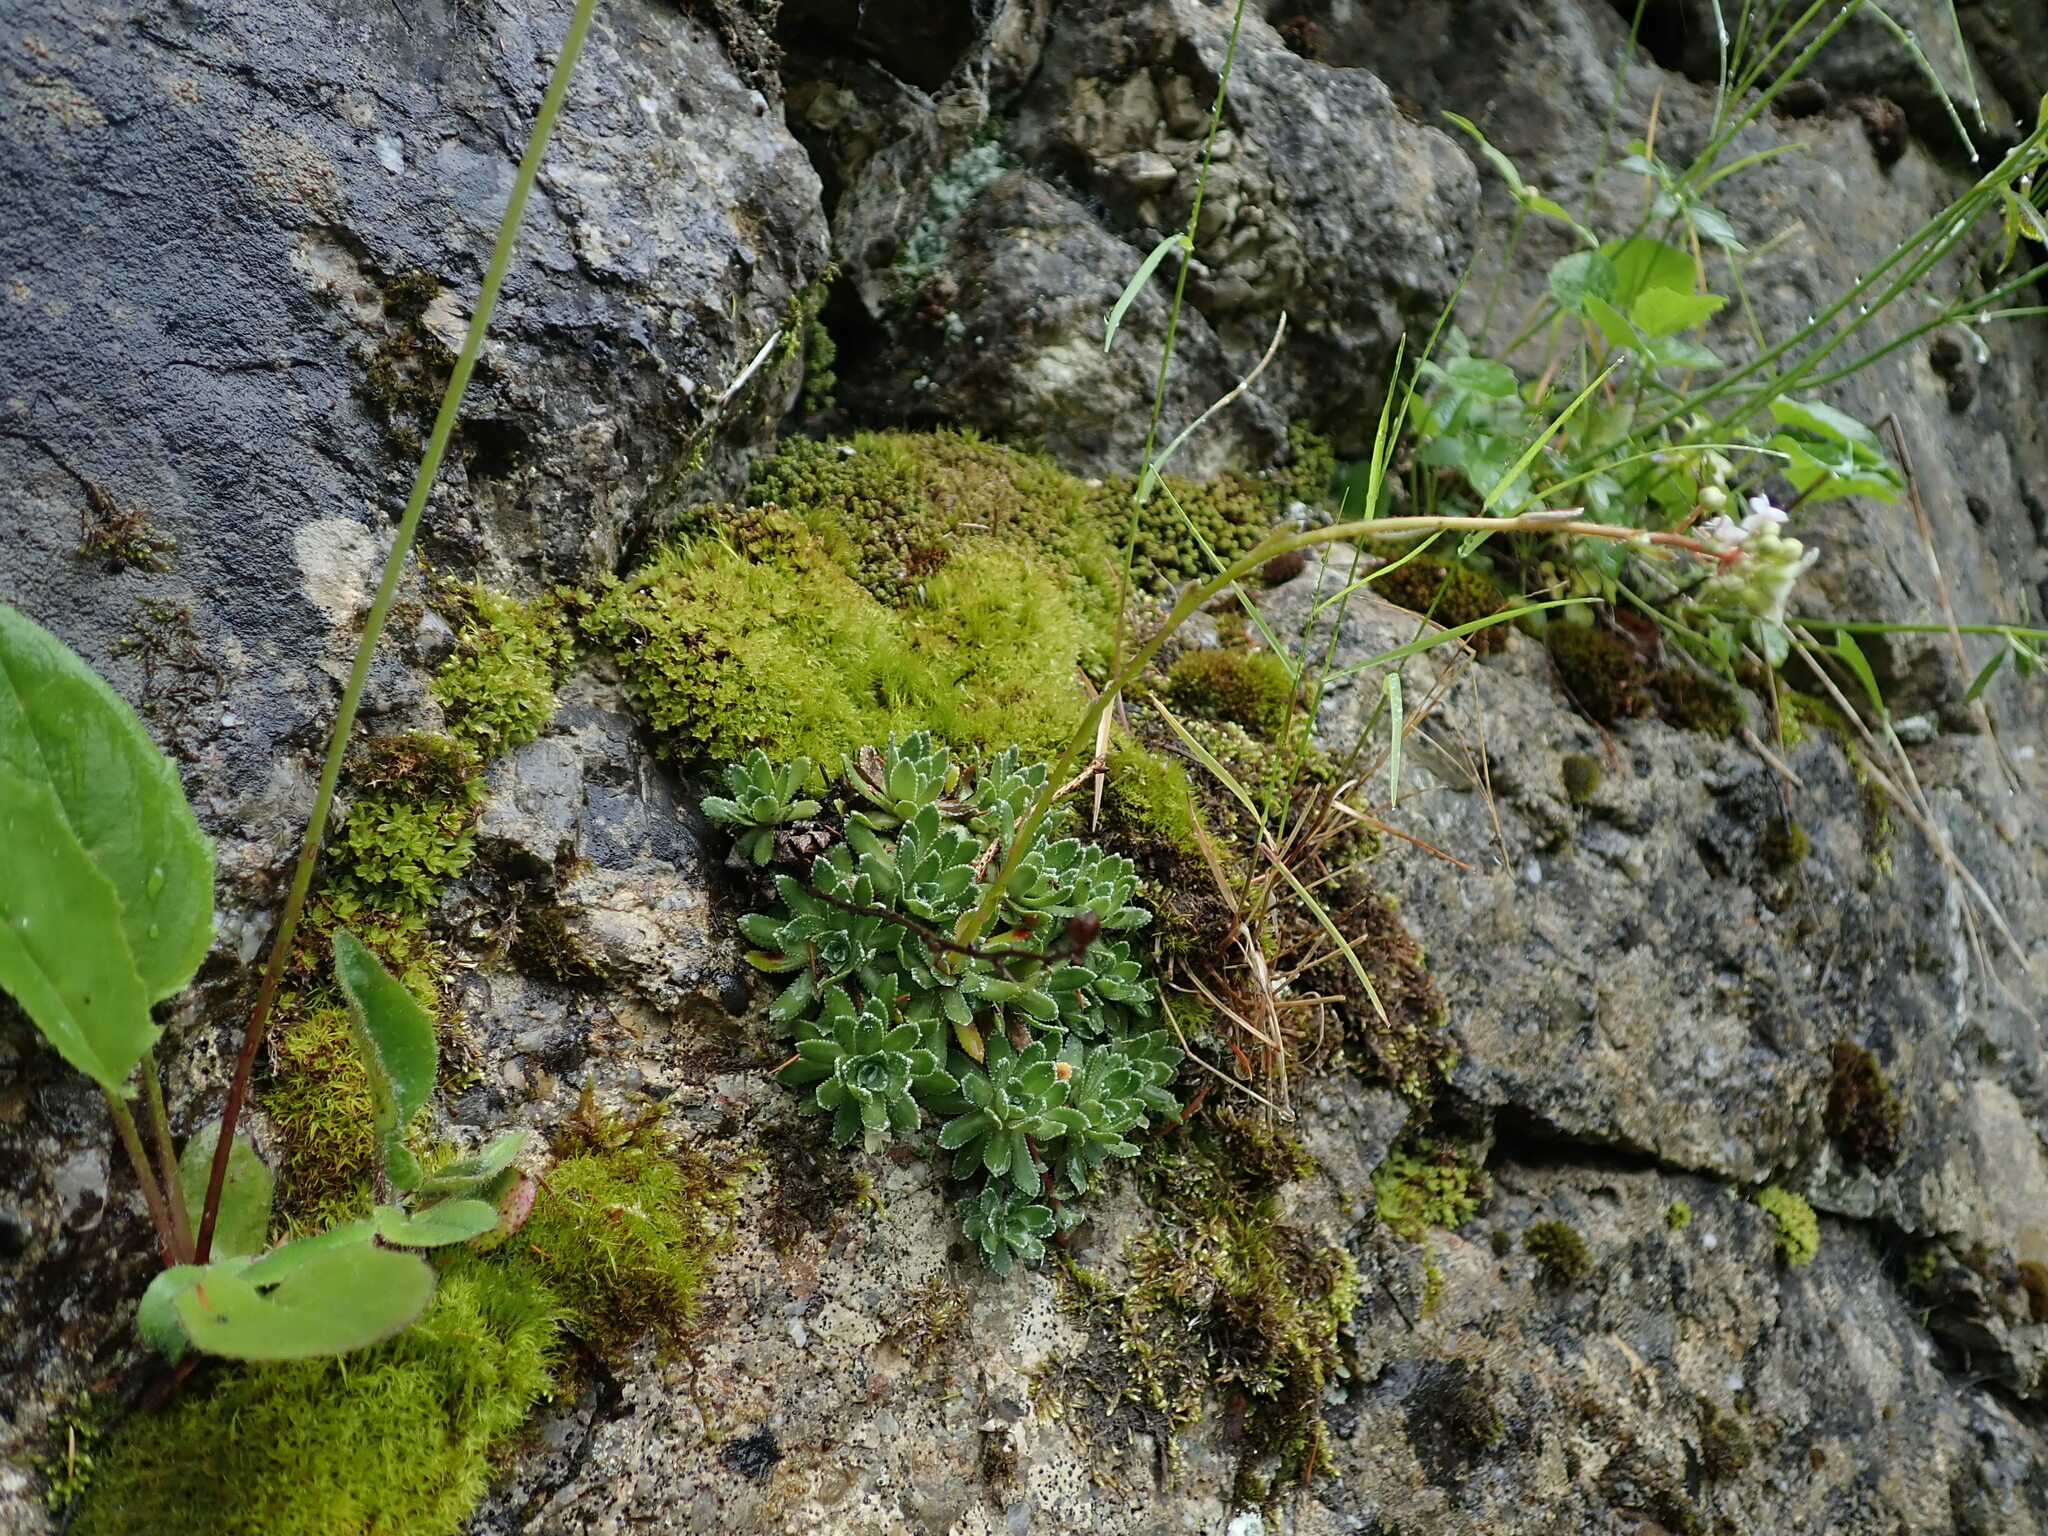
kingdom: Plantae
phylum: Tracheophyta
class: Magnoliopsida
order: Saxifragales
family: Saxifragaceae
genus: Saxifraga
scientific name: Saxifraga paniculata
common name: Livelong saxifrage
